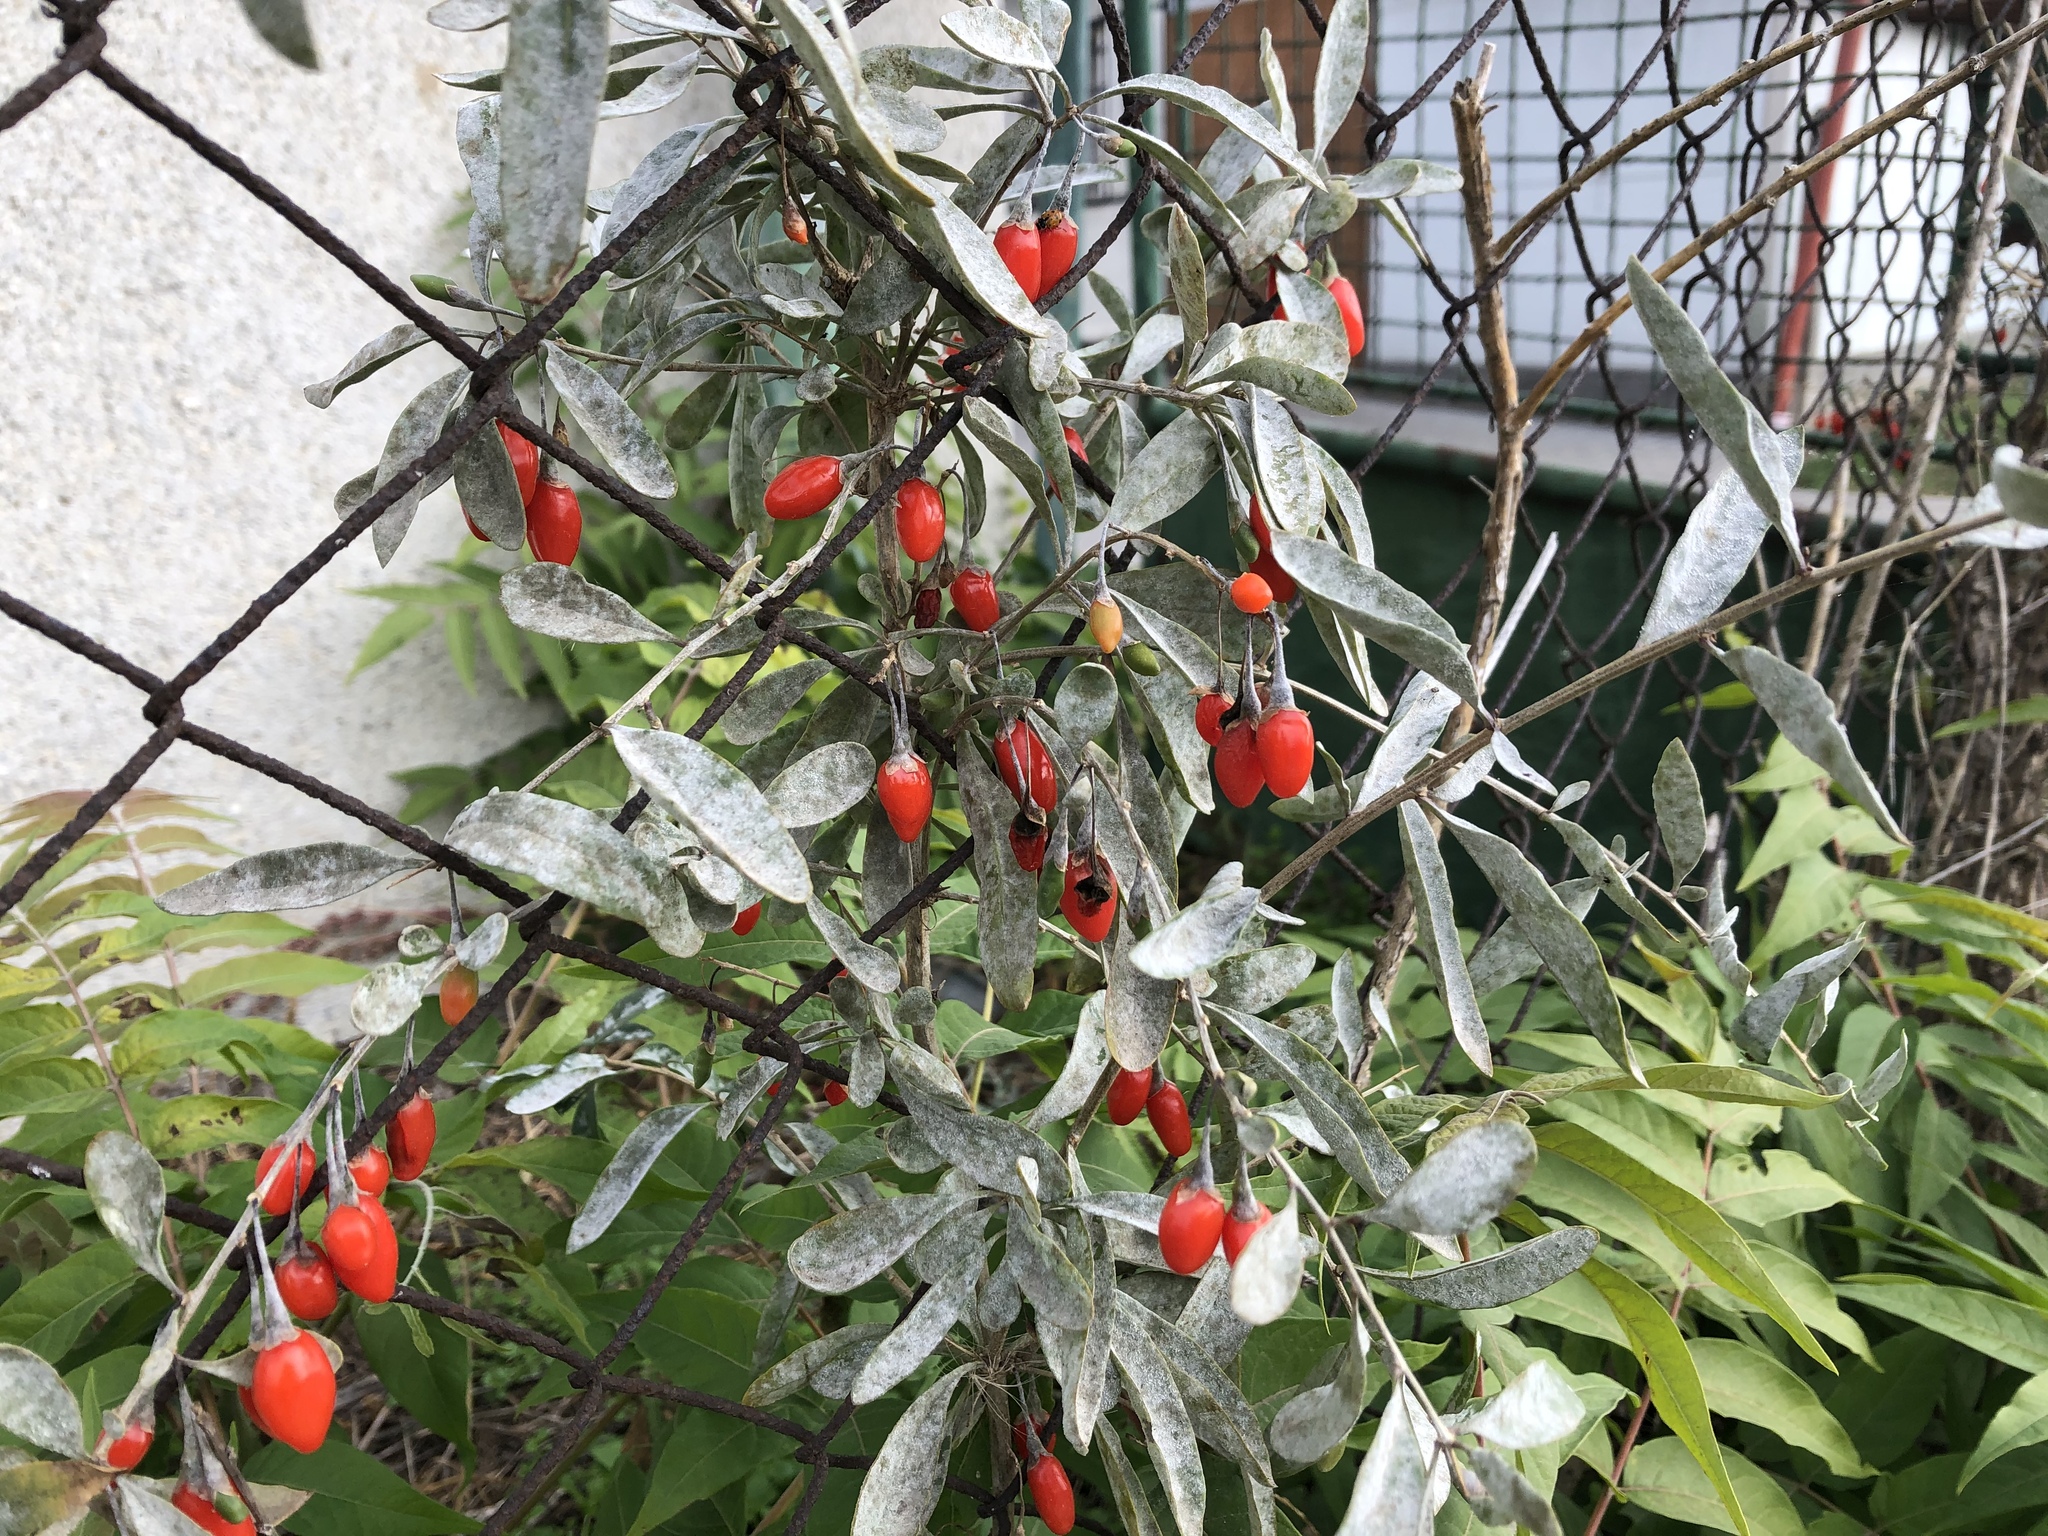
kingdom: Plantae
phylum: Tracheophyta
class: Magnoliopsida
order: Solanales
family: Solanaceae
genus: Lycium
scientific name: Lycium barbarum
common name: Duke of argyll's teaplant
